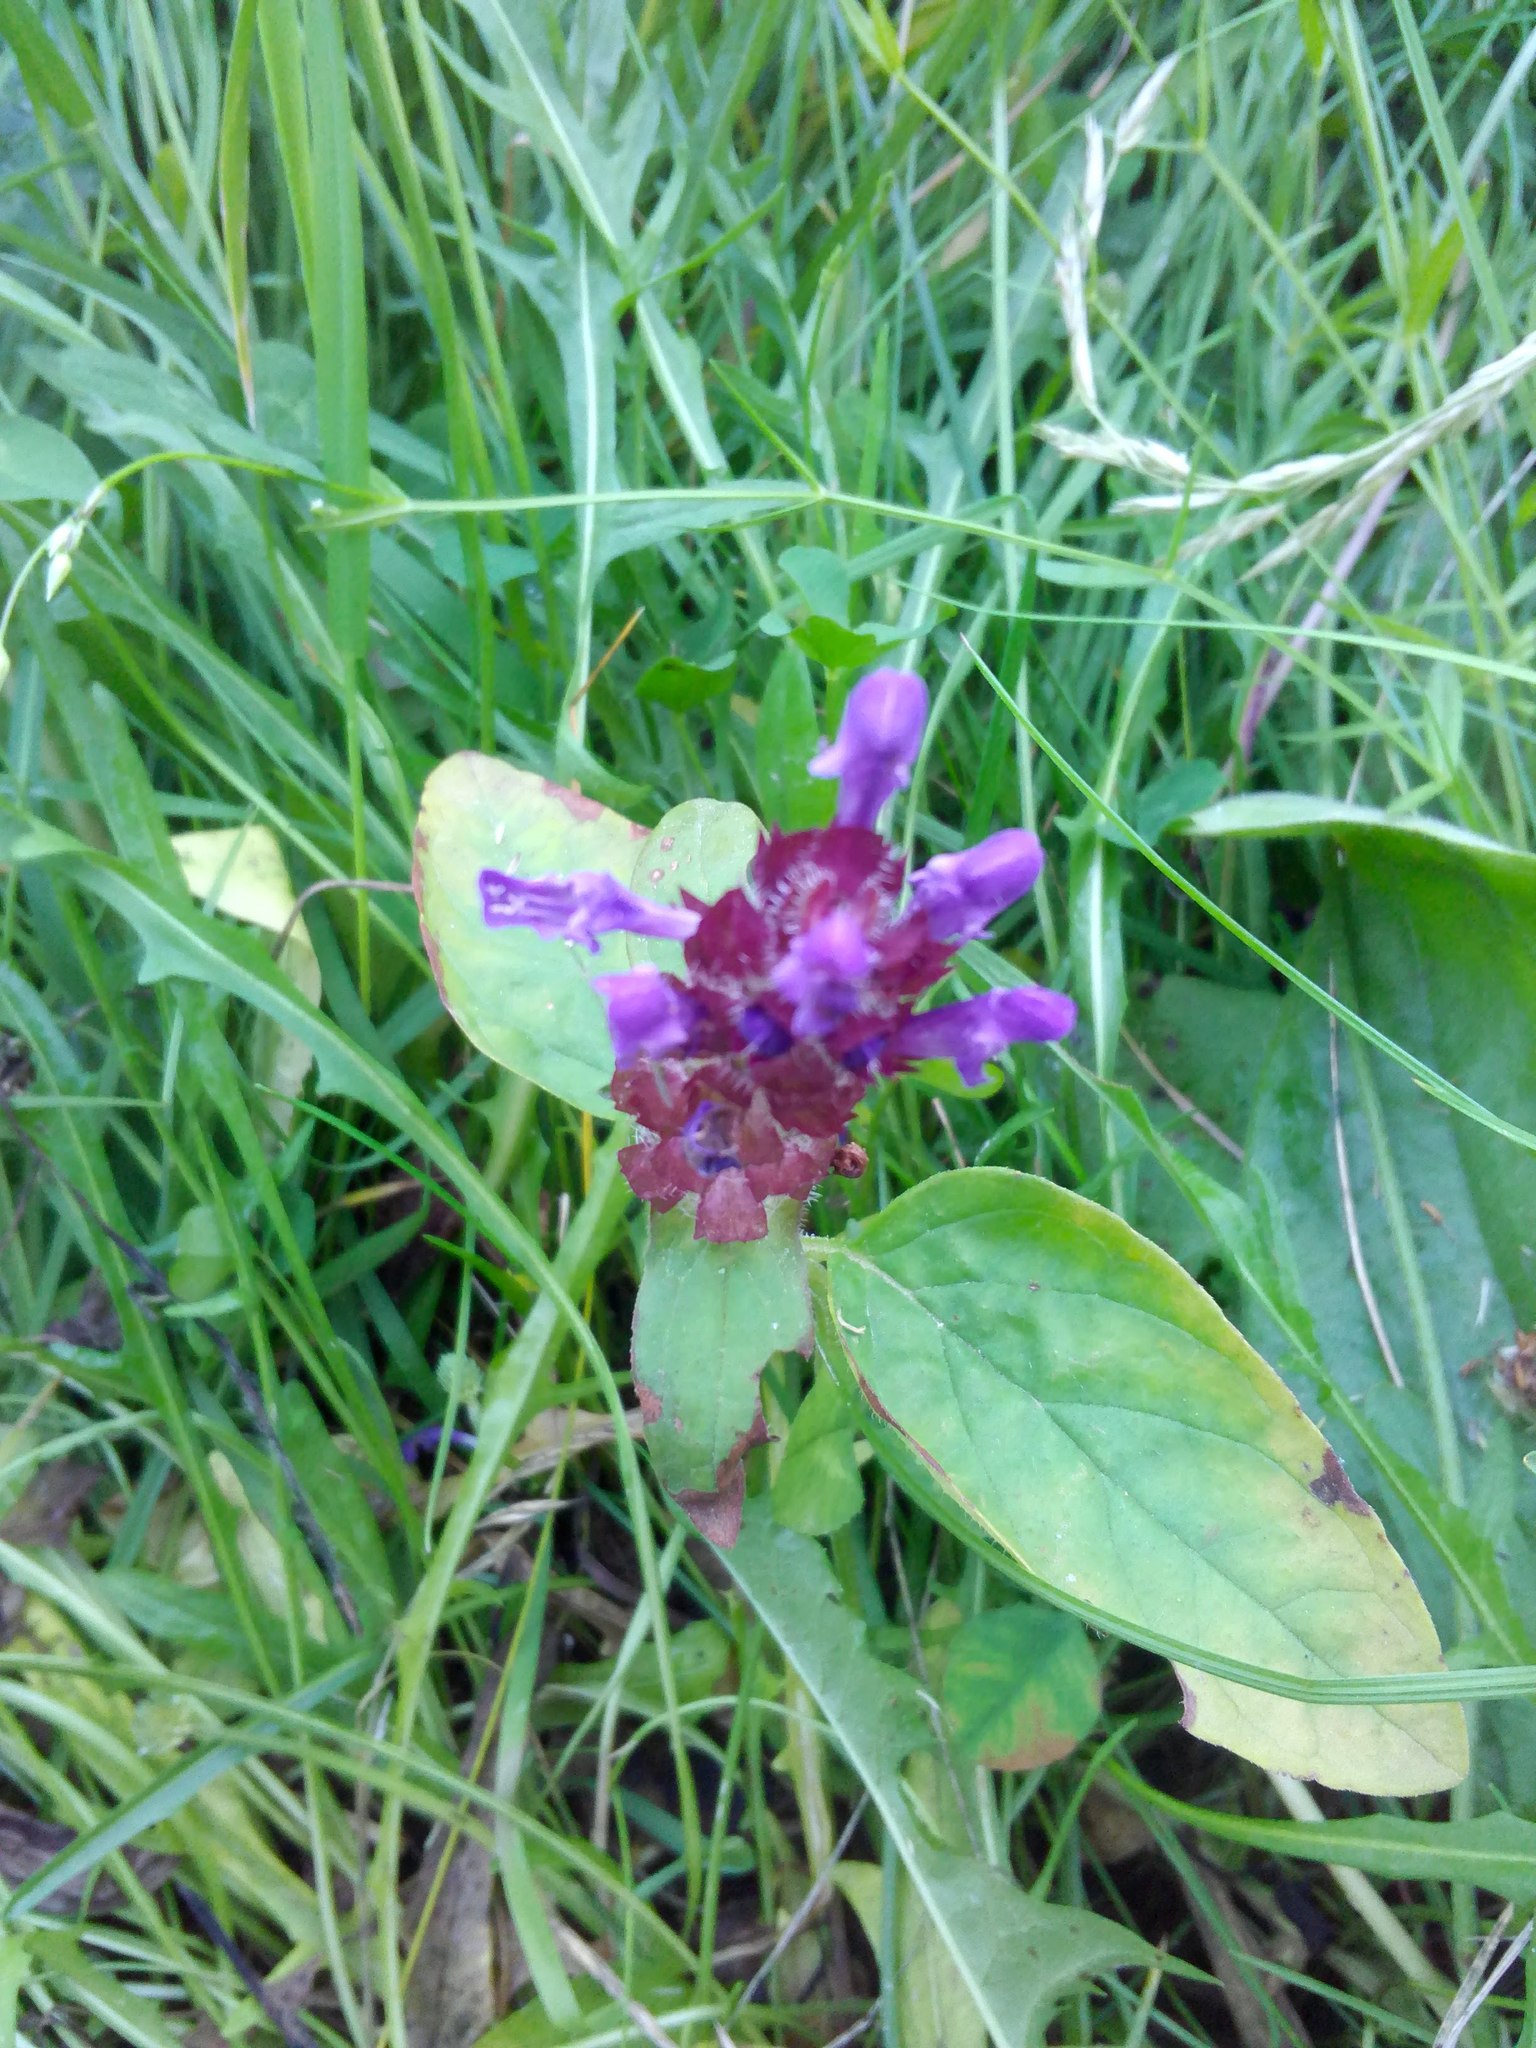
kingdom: Plantae
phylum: Tracheophyta
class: Magnoliopsida
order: Lamiales
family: Lamiaceae
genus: Prunella
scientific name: Prunella vulgaris
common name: Heal-all
